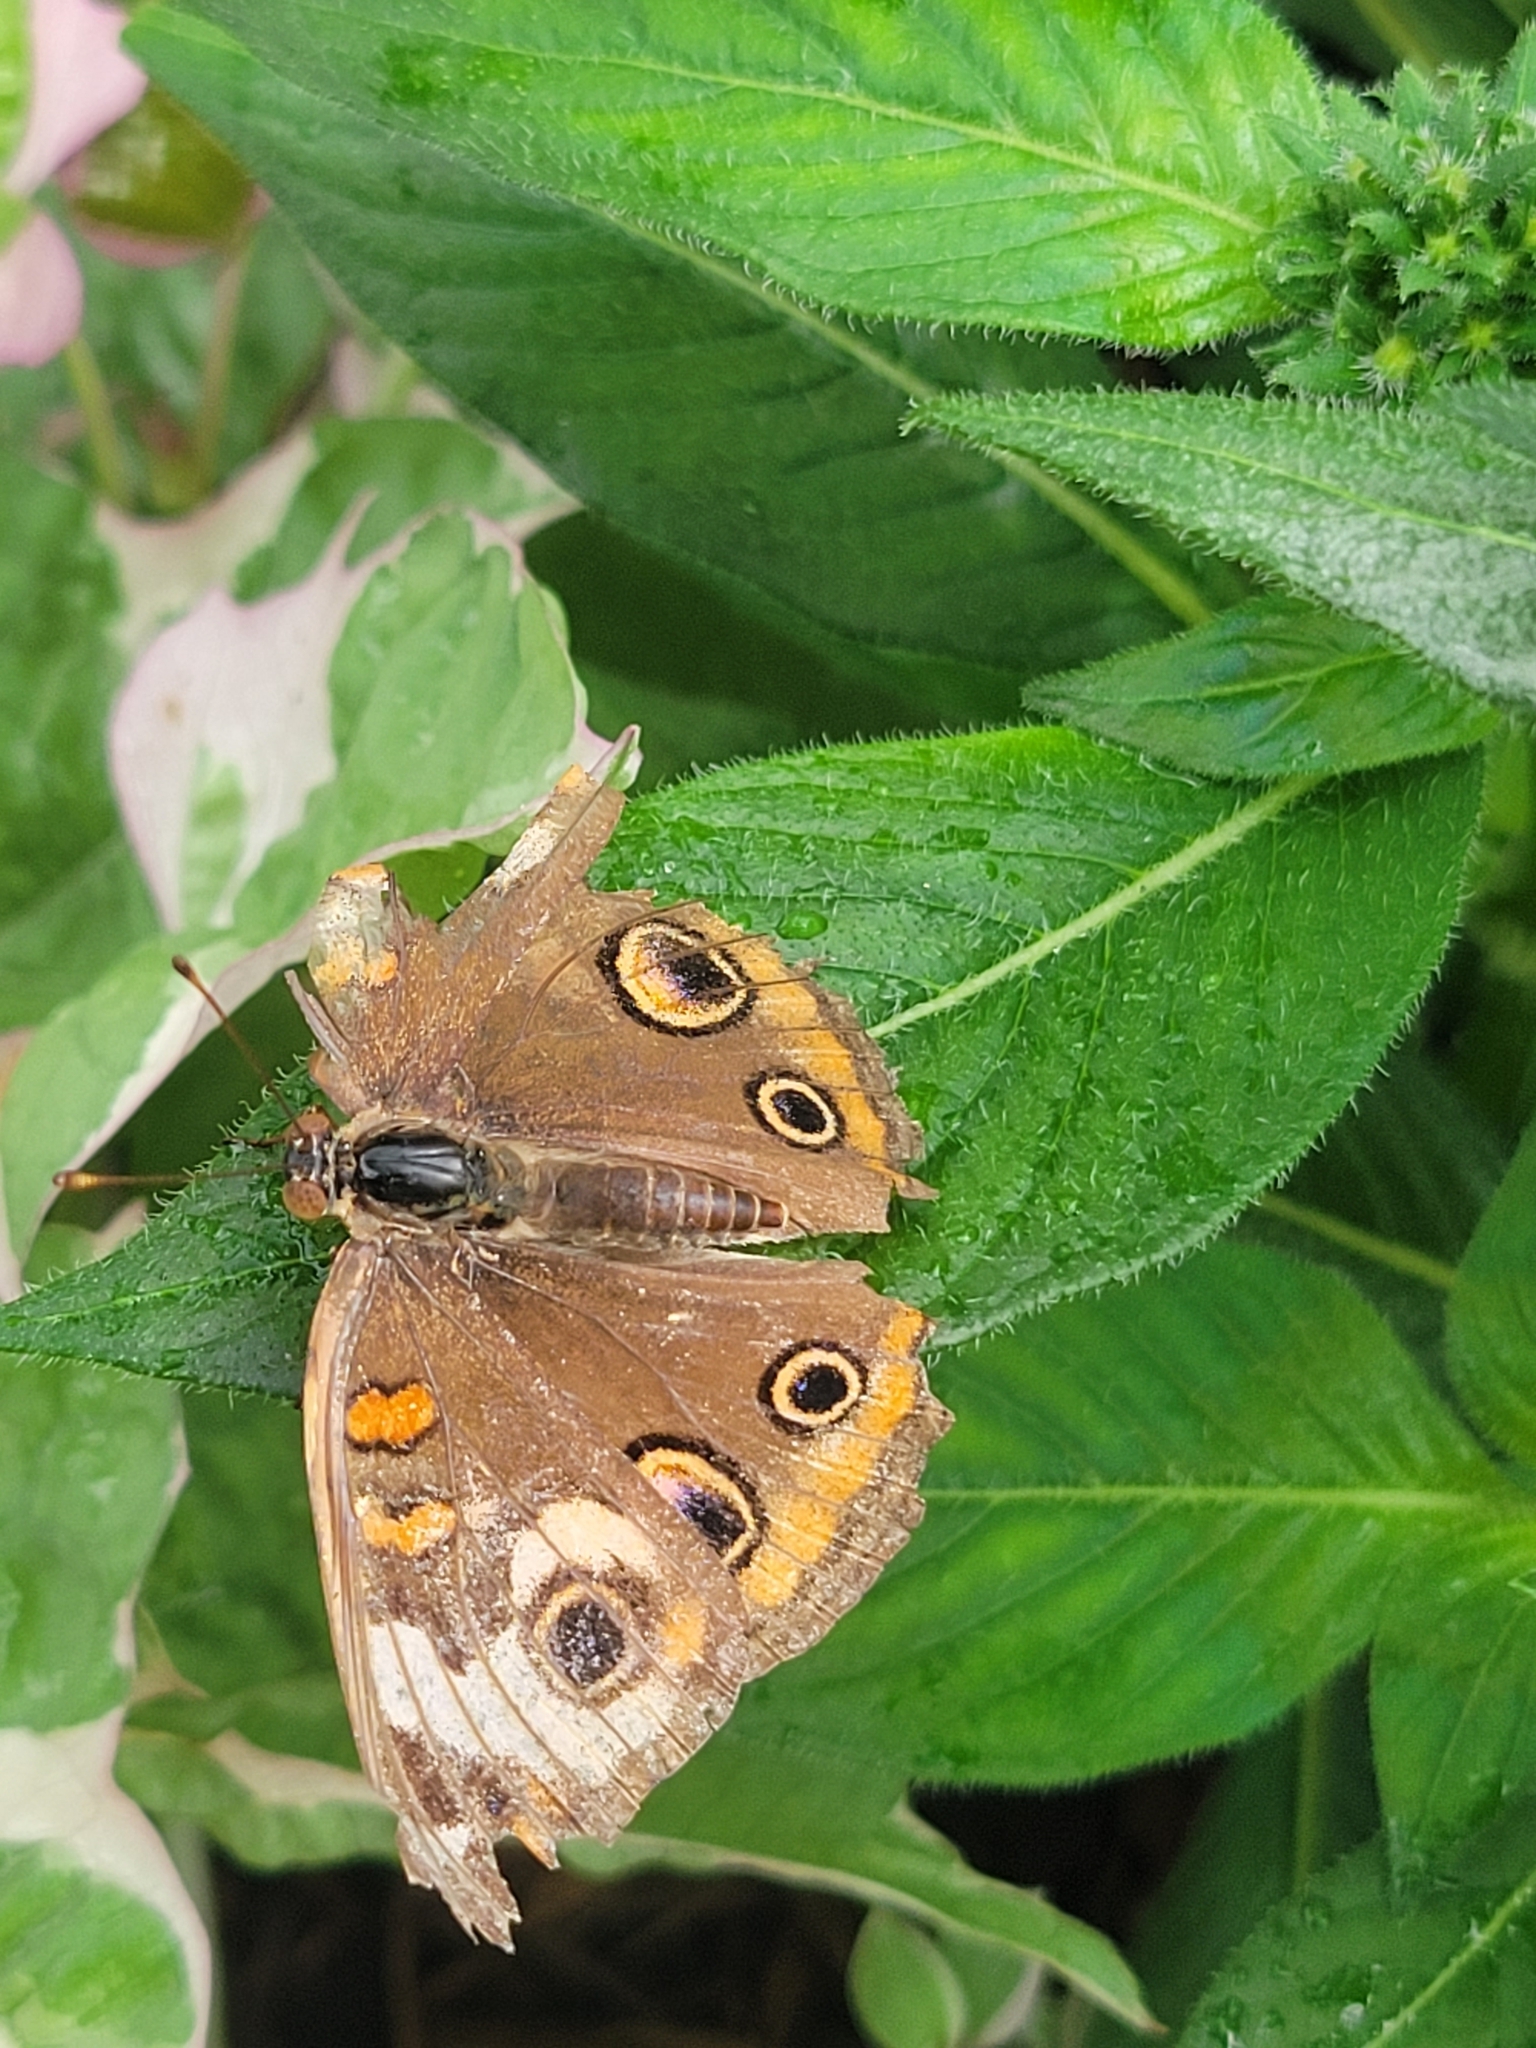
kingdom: Animalia
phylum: Arthropoda
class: Insecta
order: Lepidoptera
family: Nymphalidae
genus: Junonia
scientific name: Junonia coenia
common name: Common buckeye
